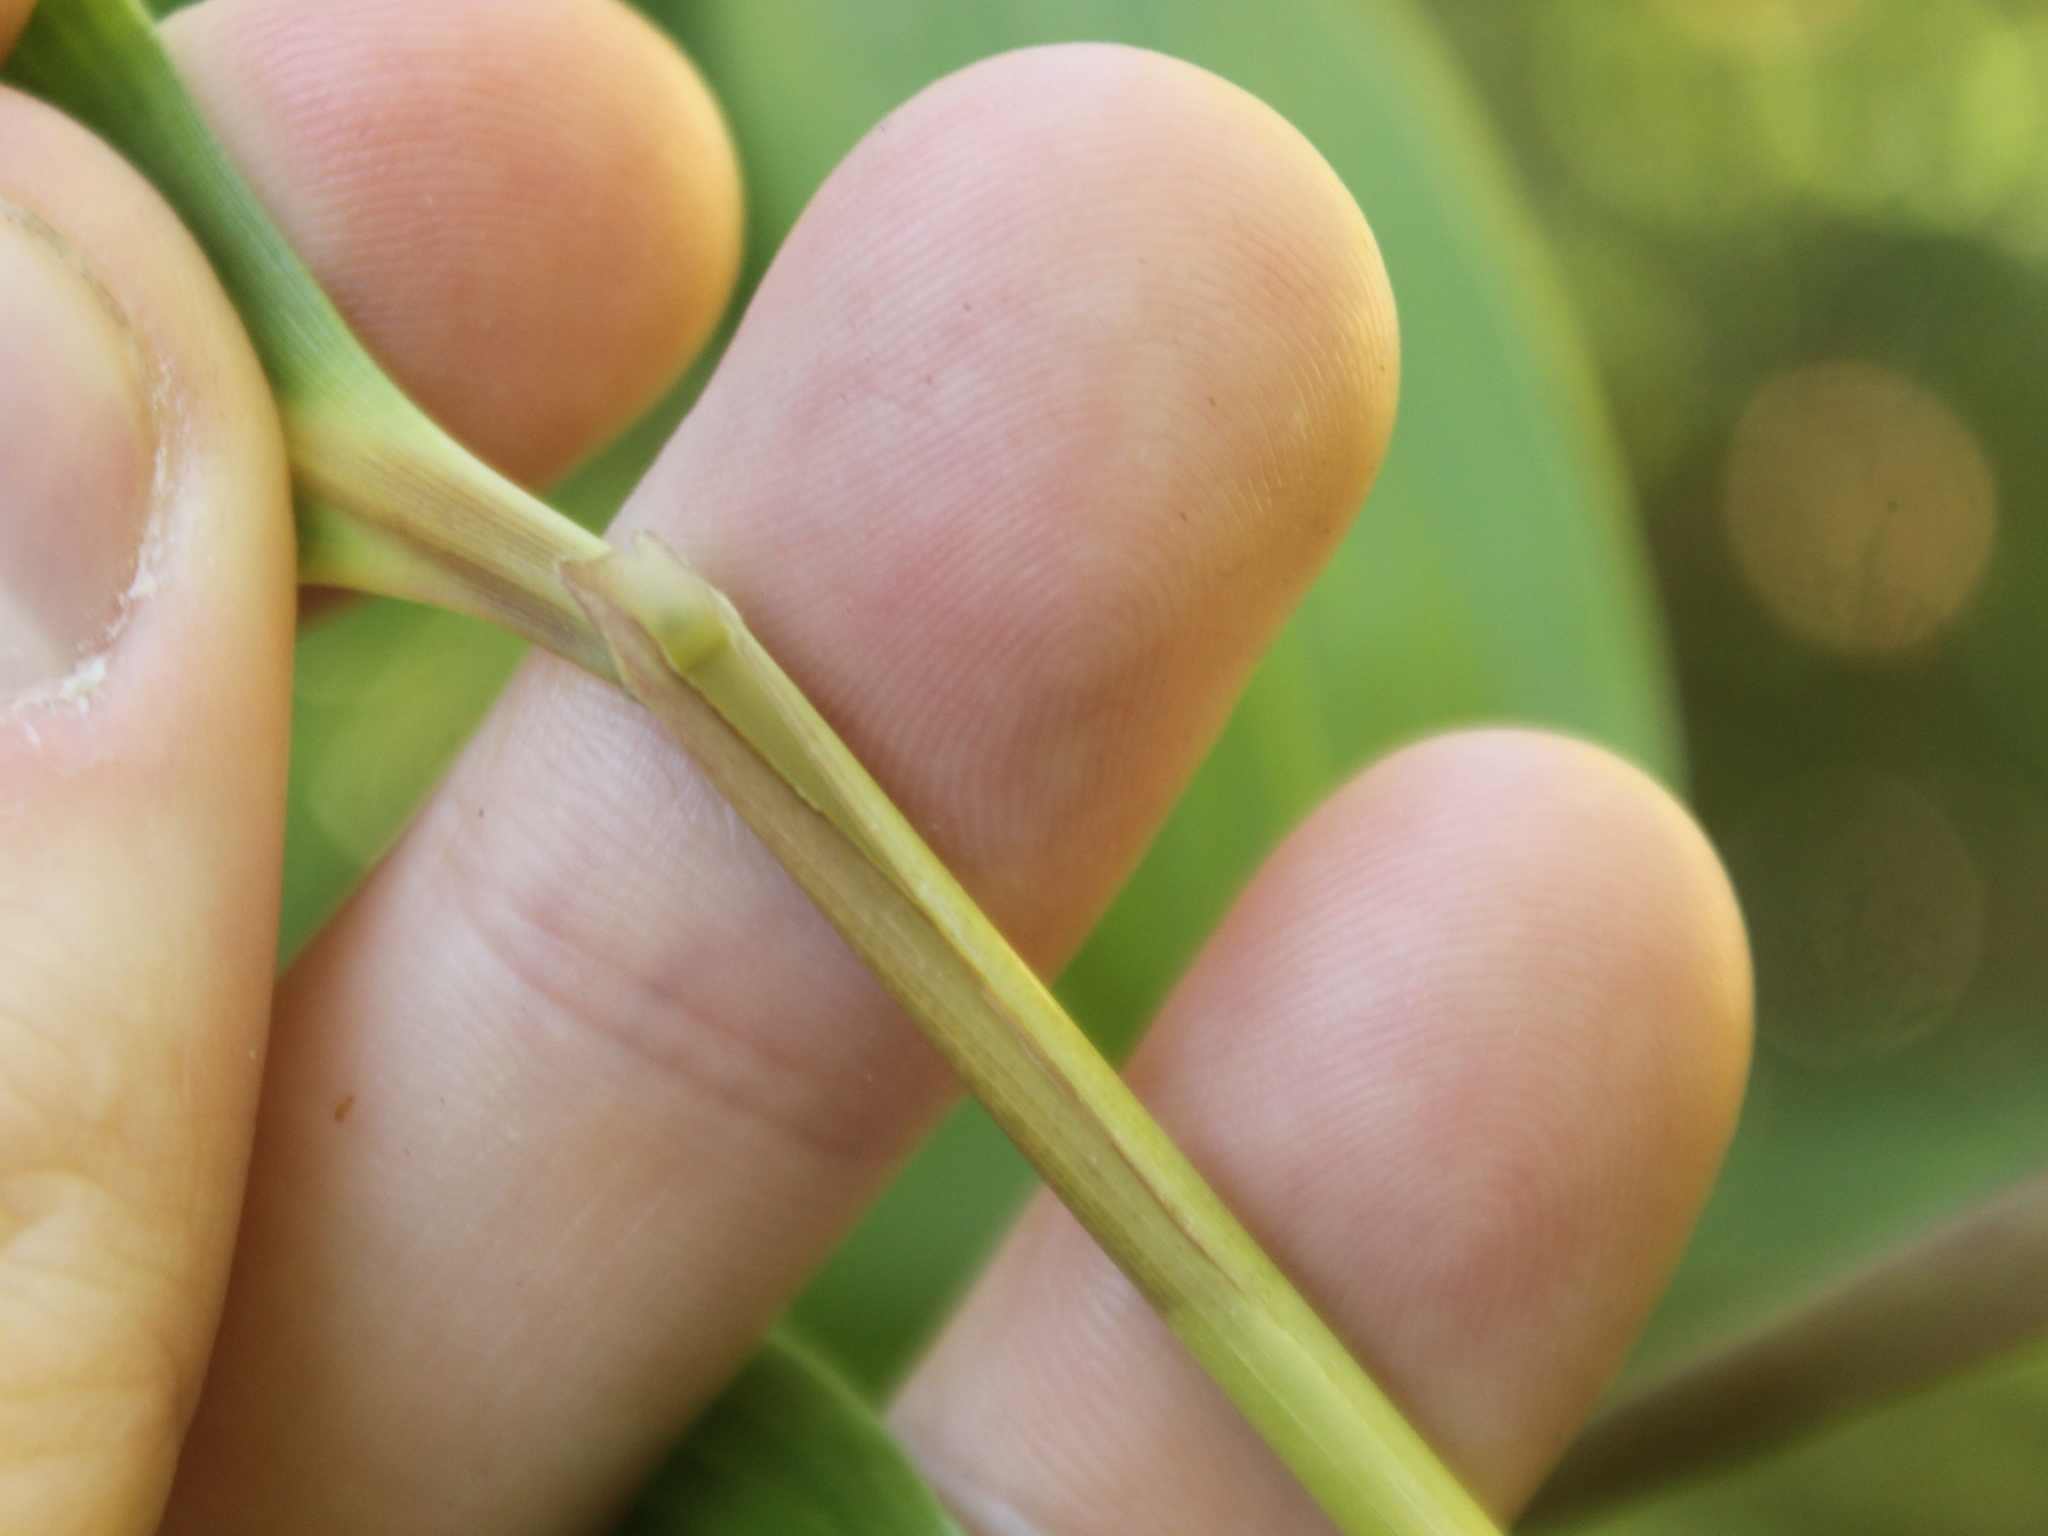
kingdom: Plantae
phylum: Tracheophyta
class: Liliopsida
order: Poales
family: Poaceae
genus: Pseudosasa
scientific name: Pseudosasa japonica
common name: Arrow bamboo
